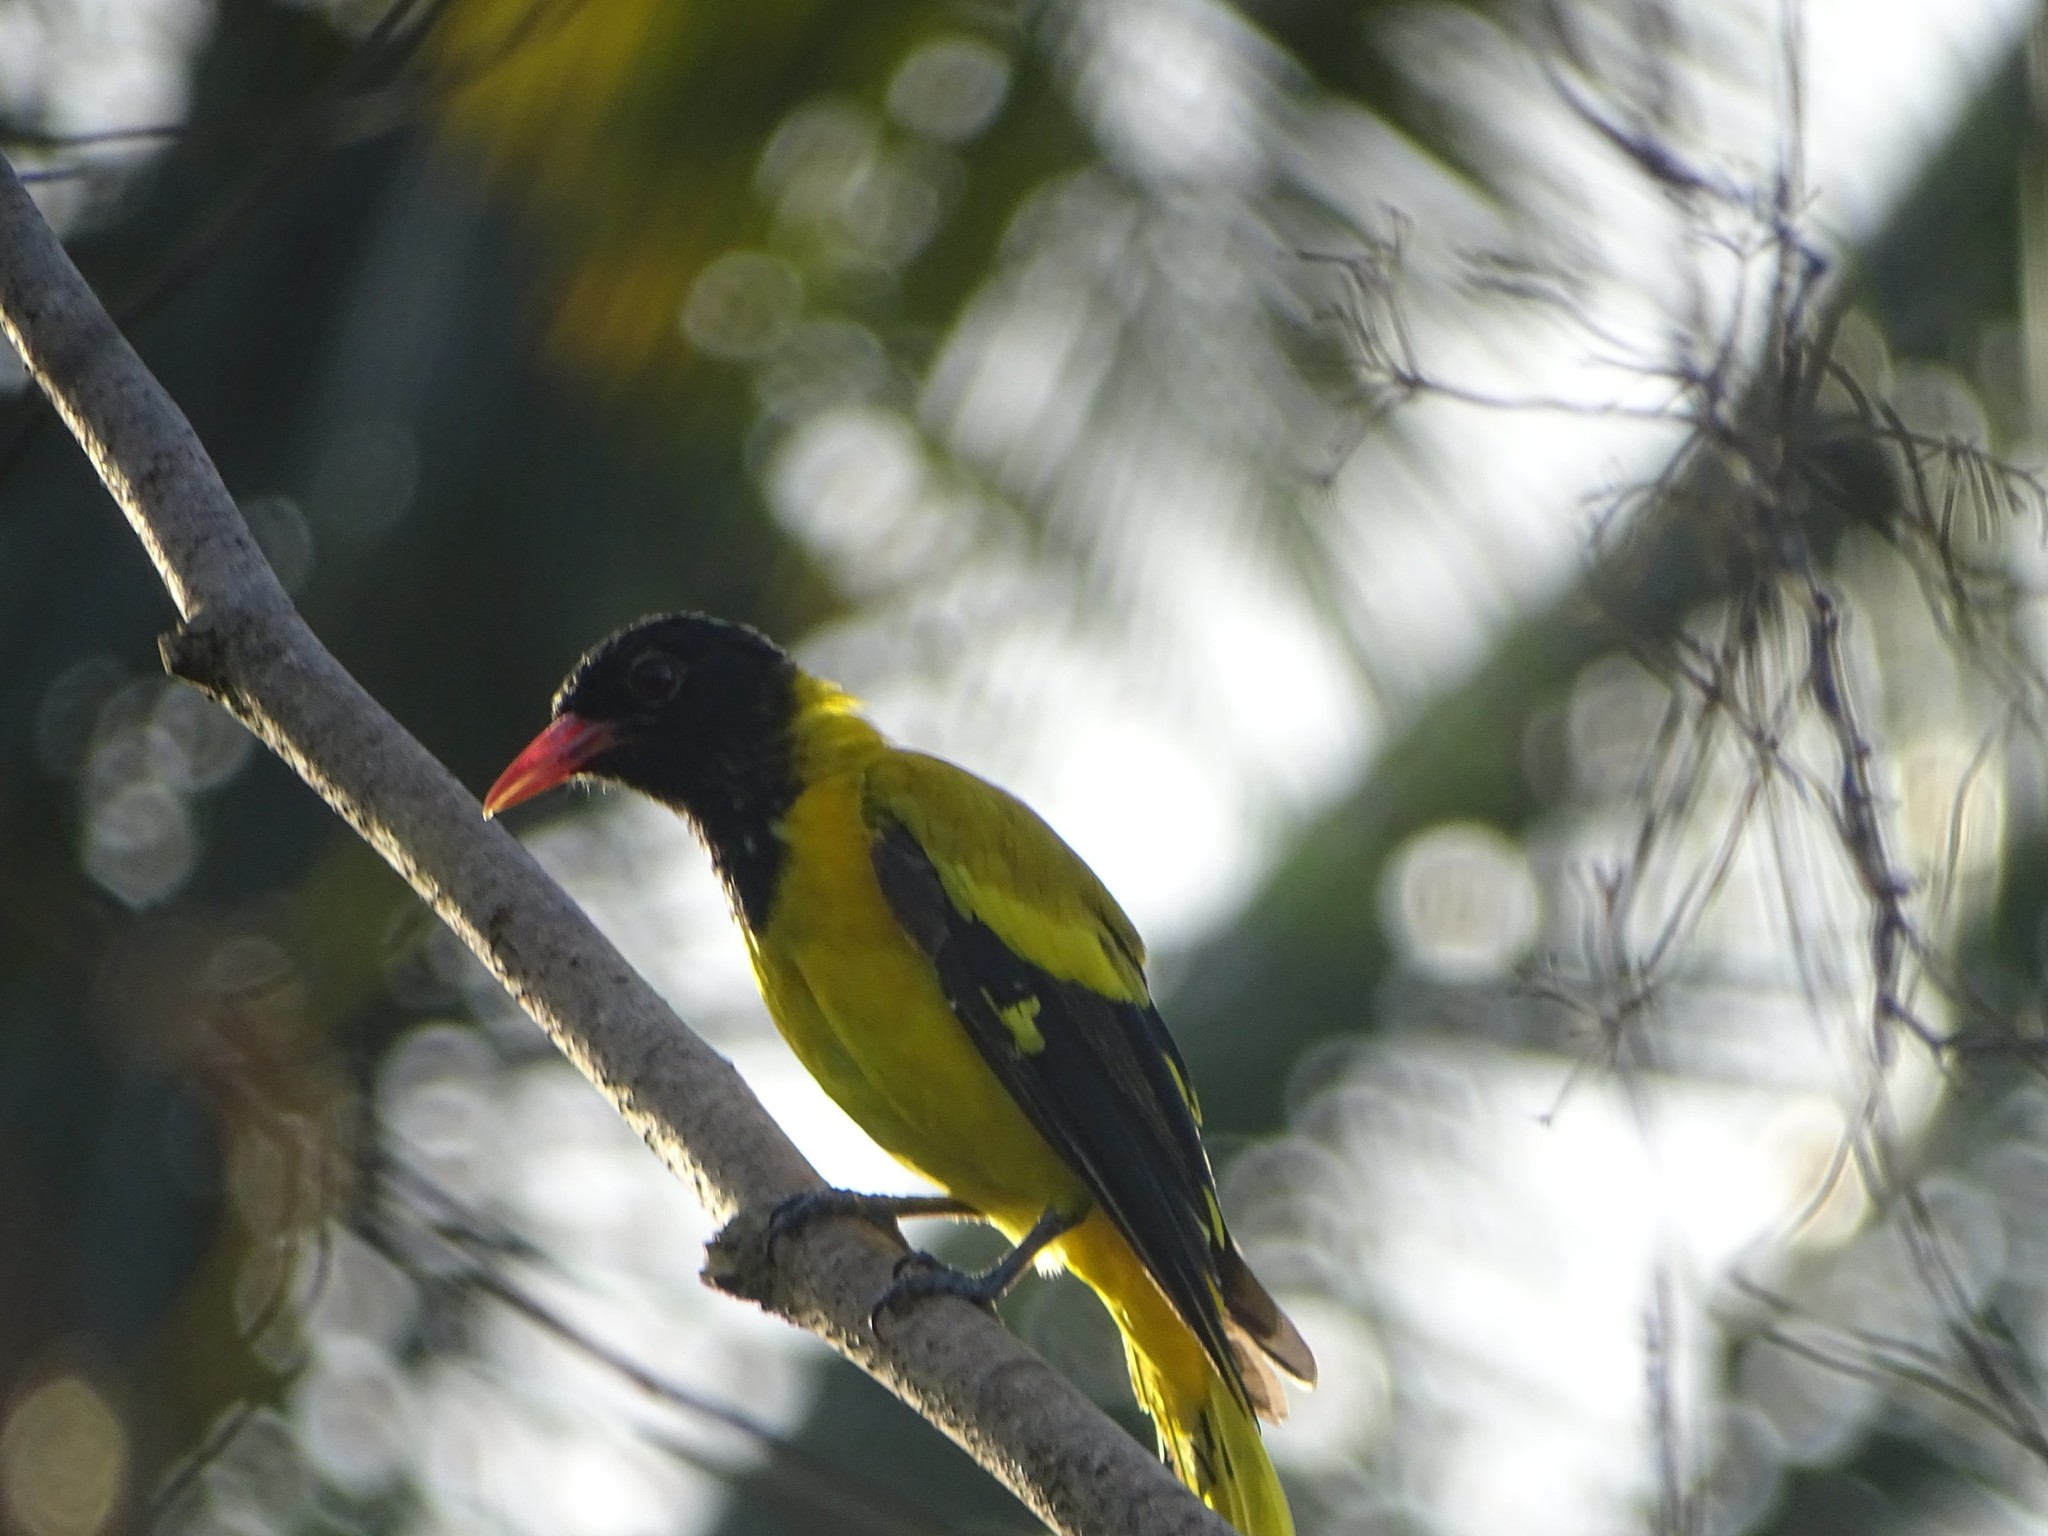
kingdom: Animalia
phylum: Chordata
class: Aves
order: Passeriformes
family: Oriolidae
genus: Oriolus
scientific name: Oriolus xanthornus
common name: Black-hooded oriole
